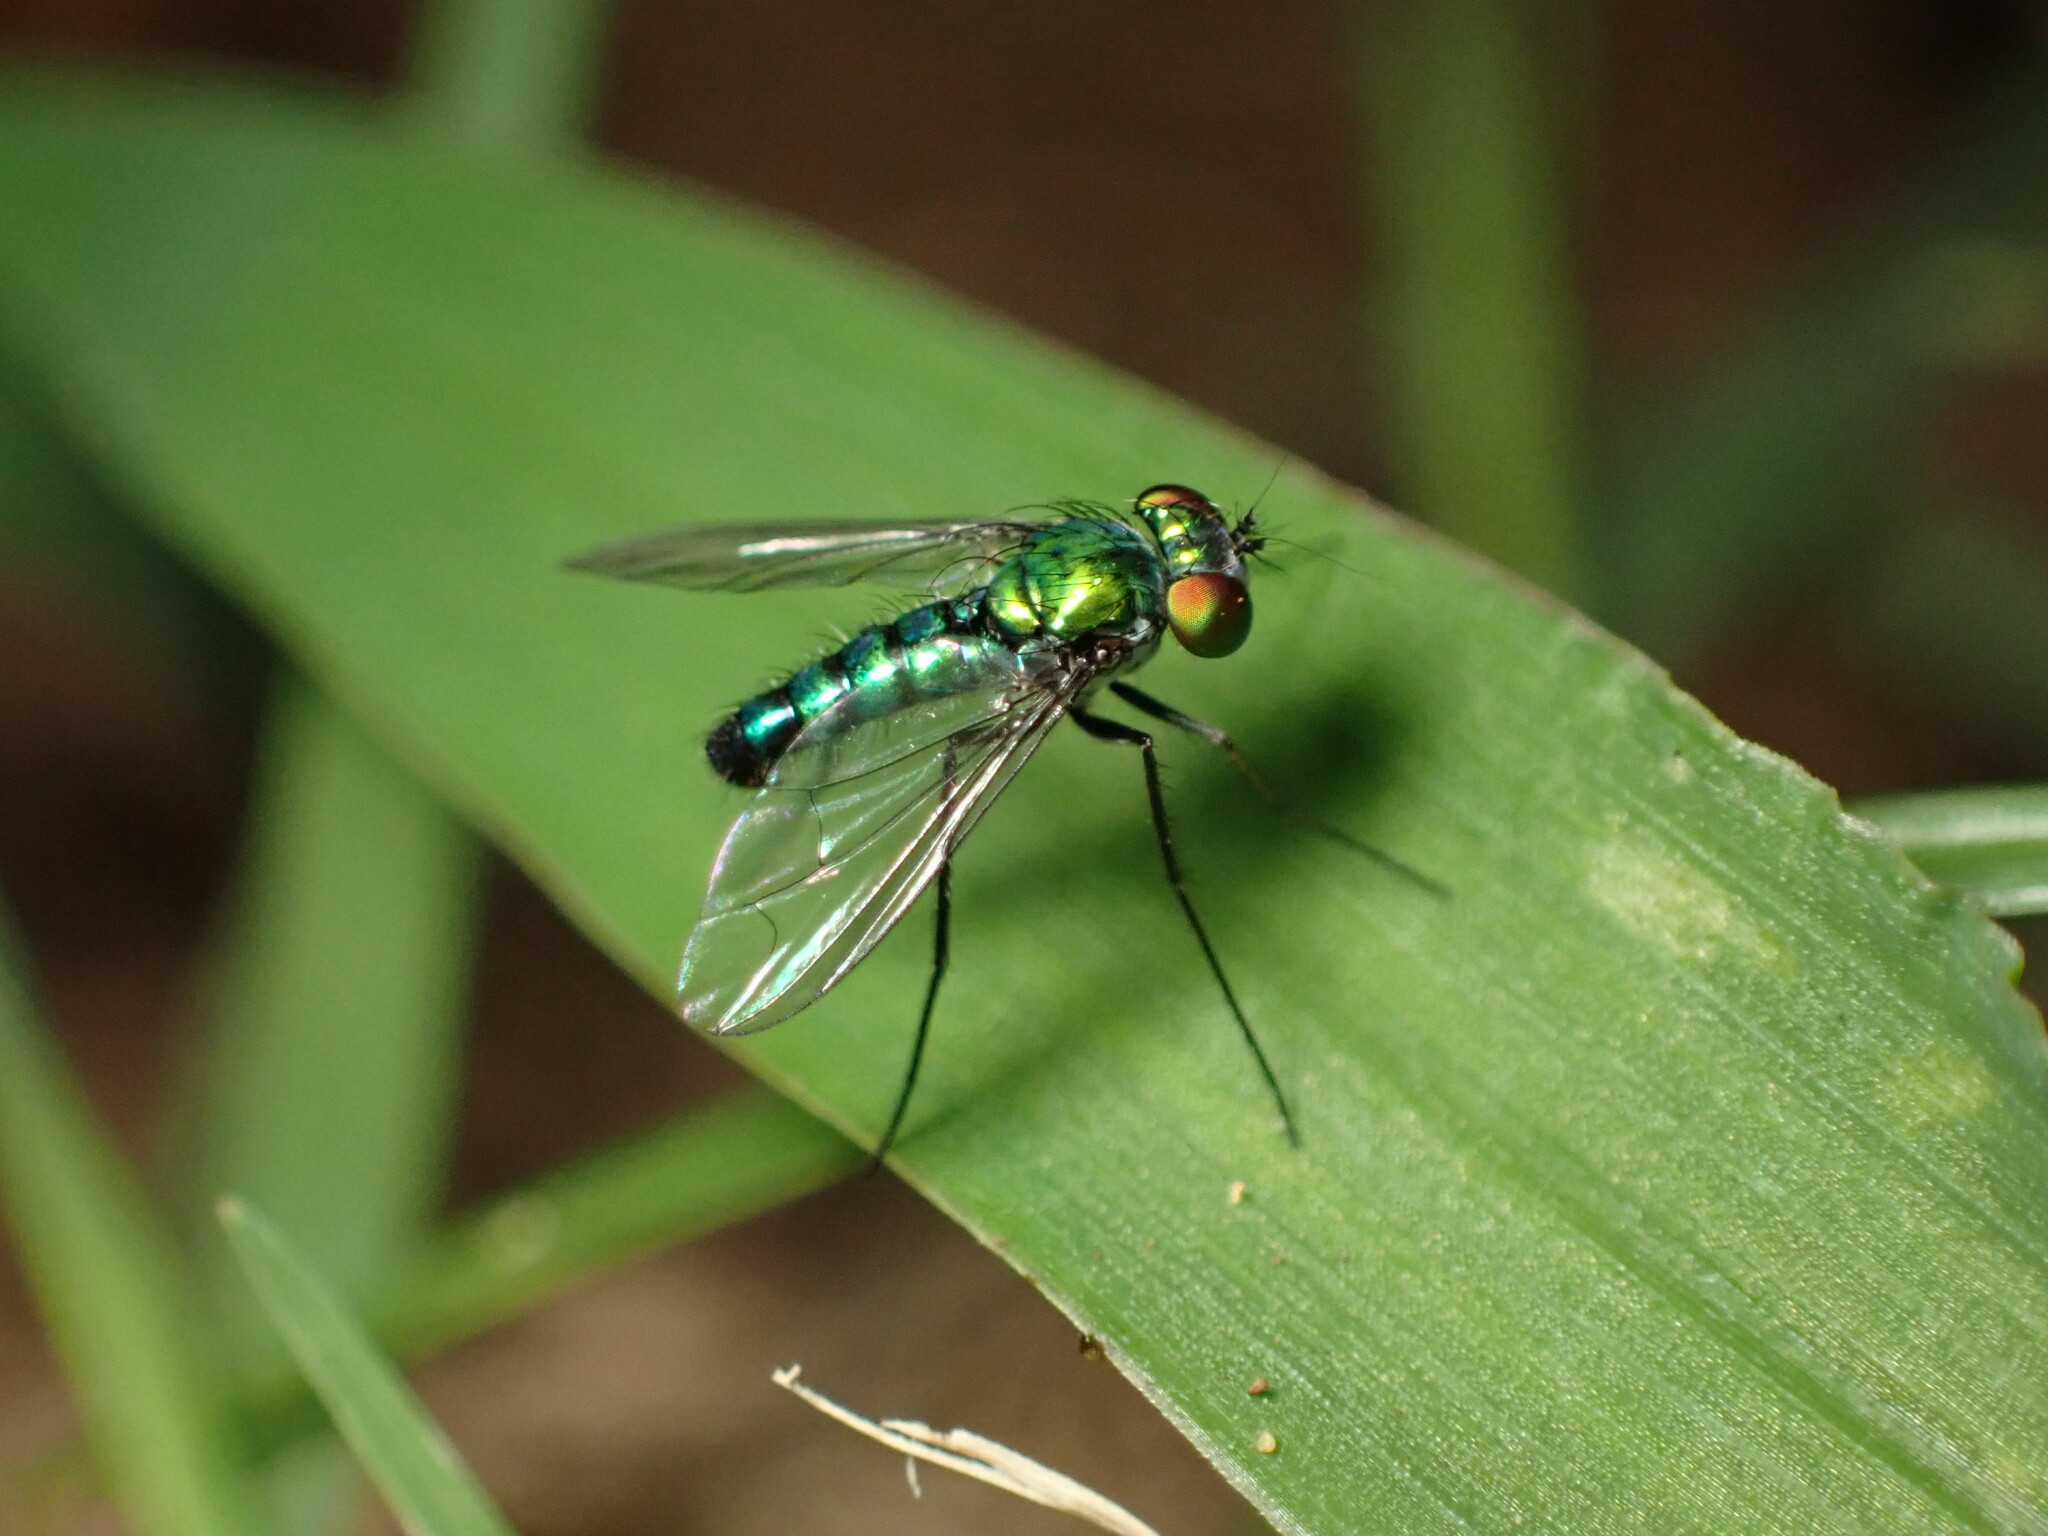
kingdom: Animalia
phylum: Arthropoda
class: Insecta
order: Diptera
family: Dolichopodidae
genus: Condylostylus
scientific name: Condylostylus longicornis
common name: Long-legged fly
